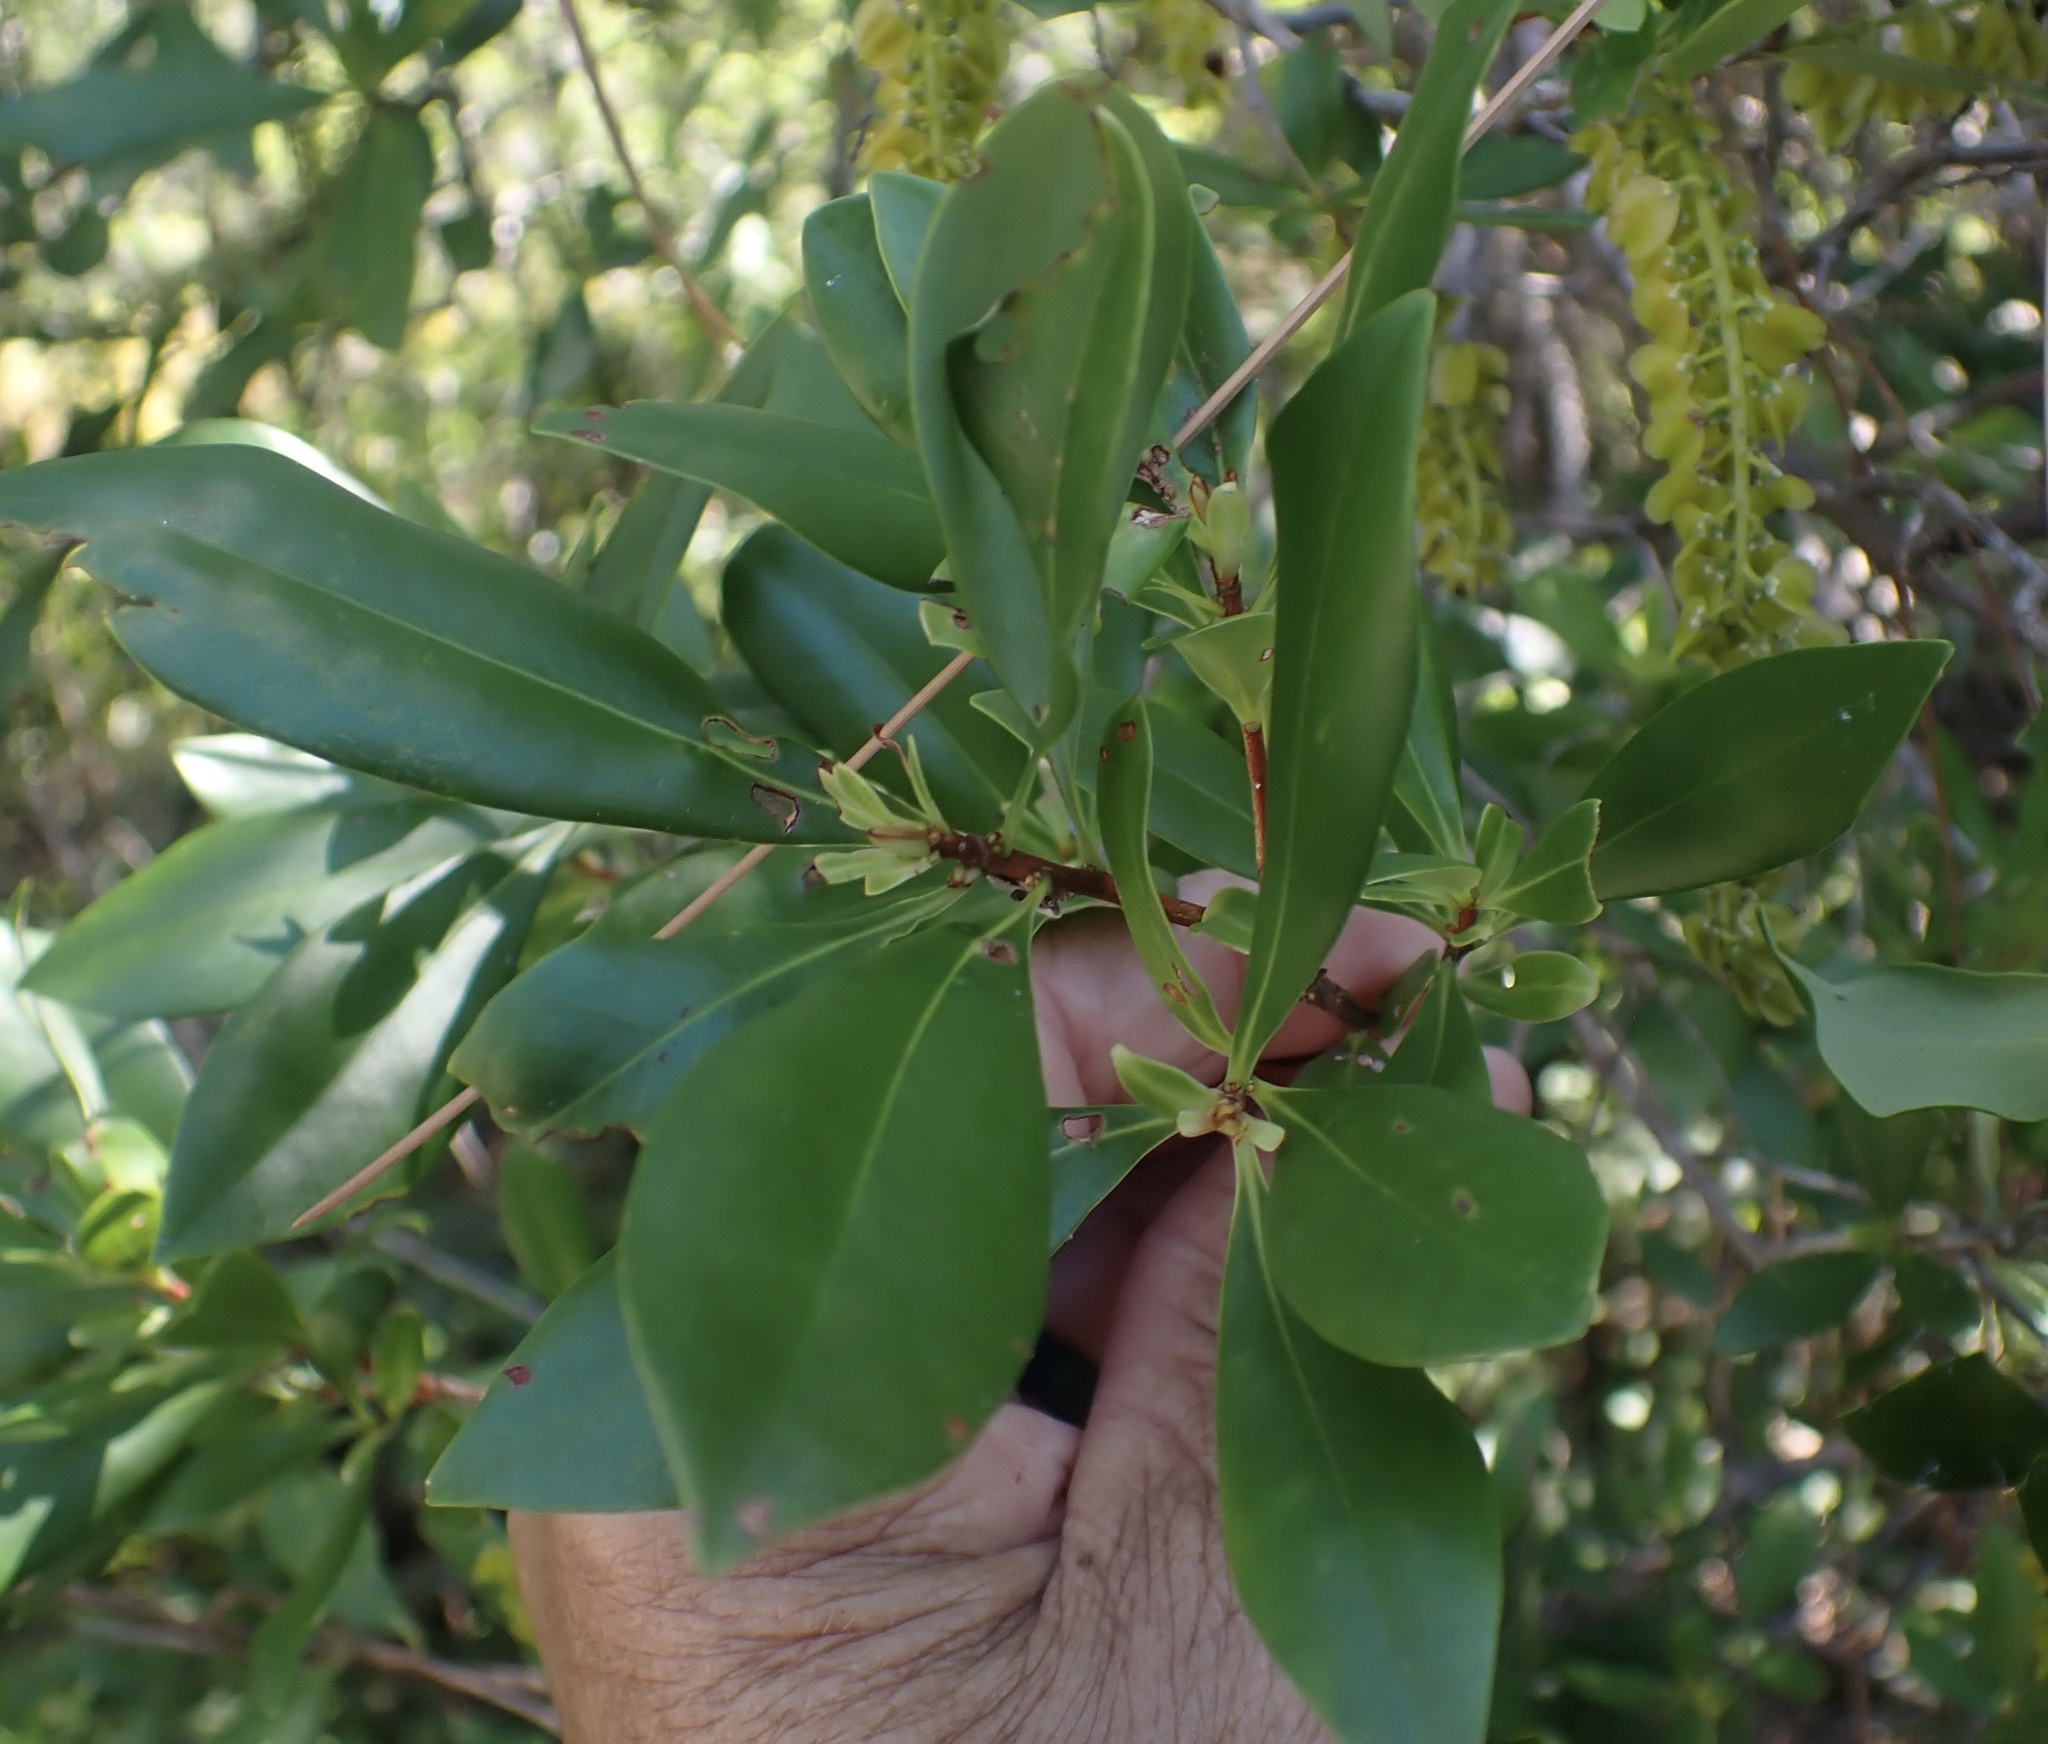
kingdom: Plantae
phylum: Tracheophyta
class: Magnoliopsida
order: Ericales
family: Cyrillaceae
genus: Cliftonia
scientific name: Cliftonia monophylla
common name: Titi
